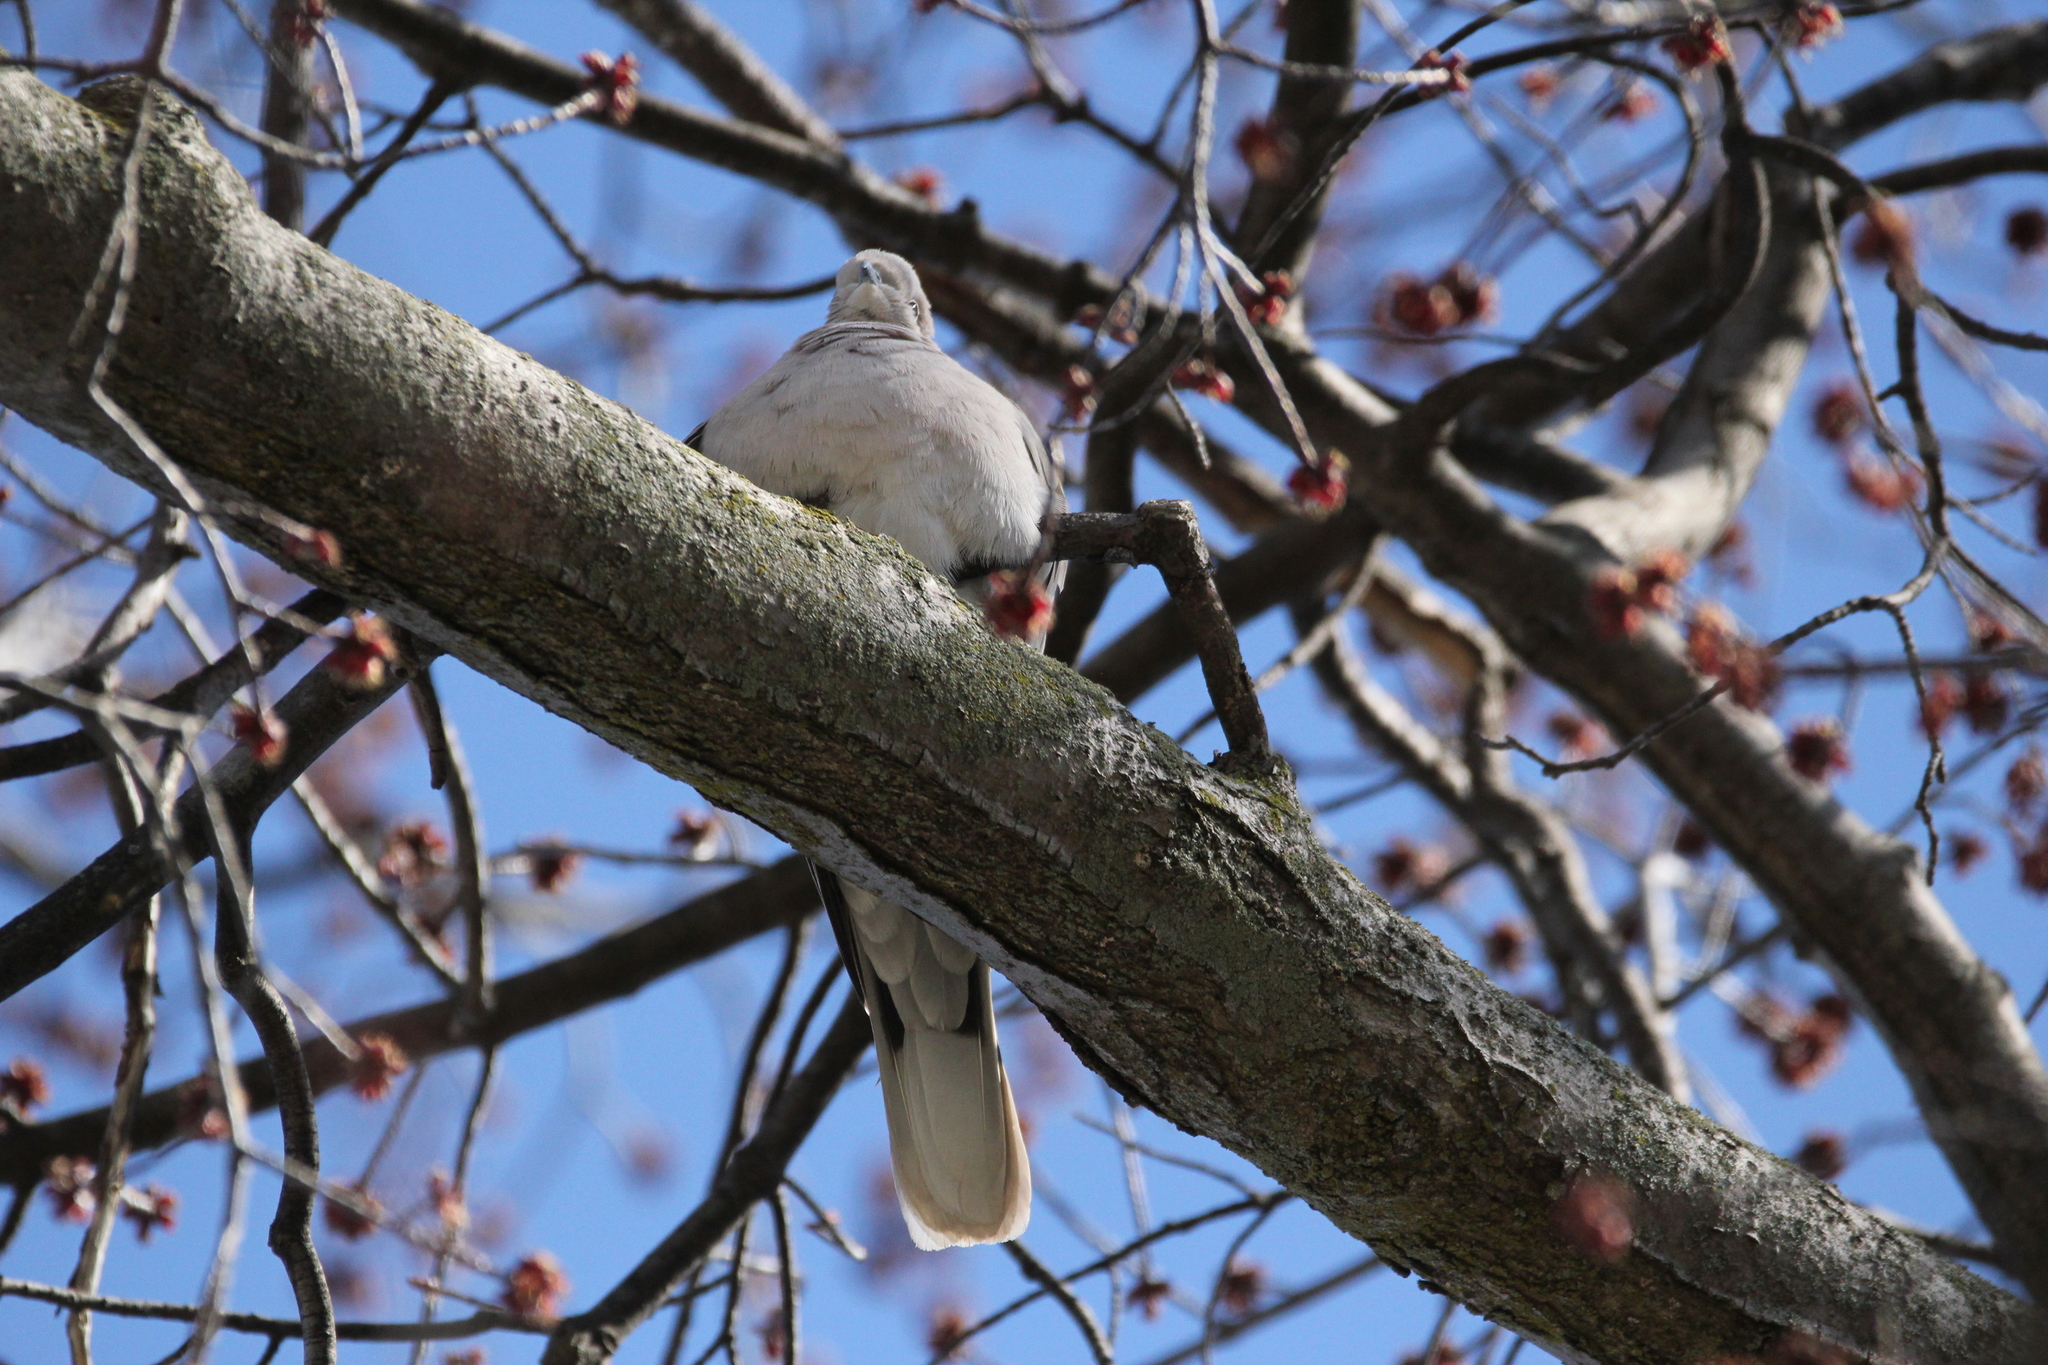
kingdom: Animalia
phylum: Chordata
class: Aves
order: Columbiformes
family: Columbidae
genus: Streptopelia
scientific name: Streptopelia decaocto
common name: Eurasian collared dove
